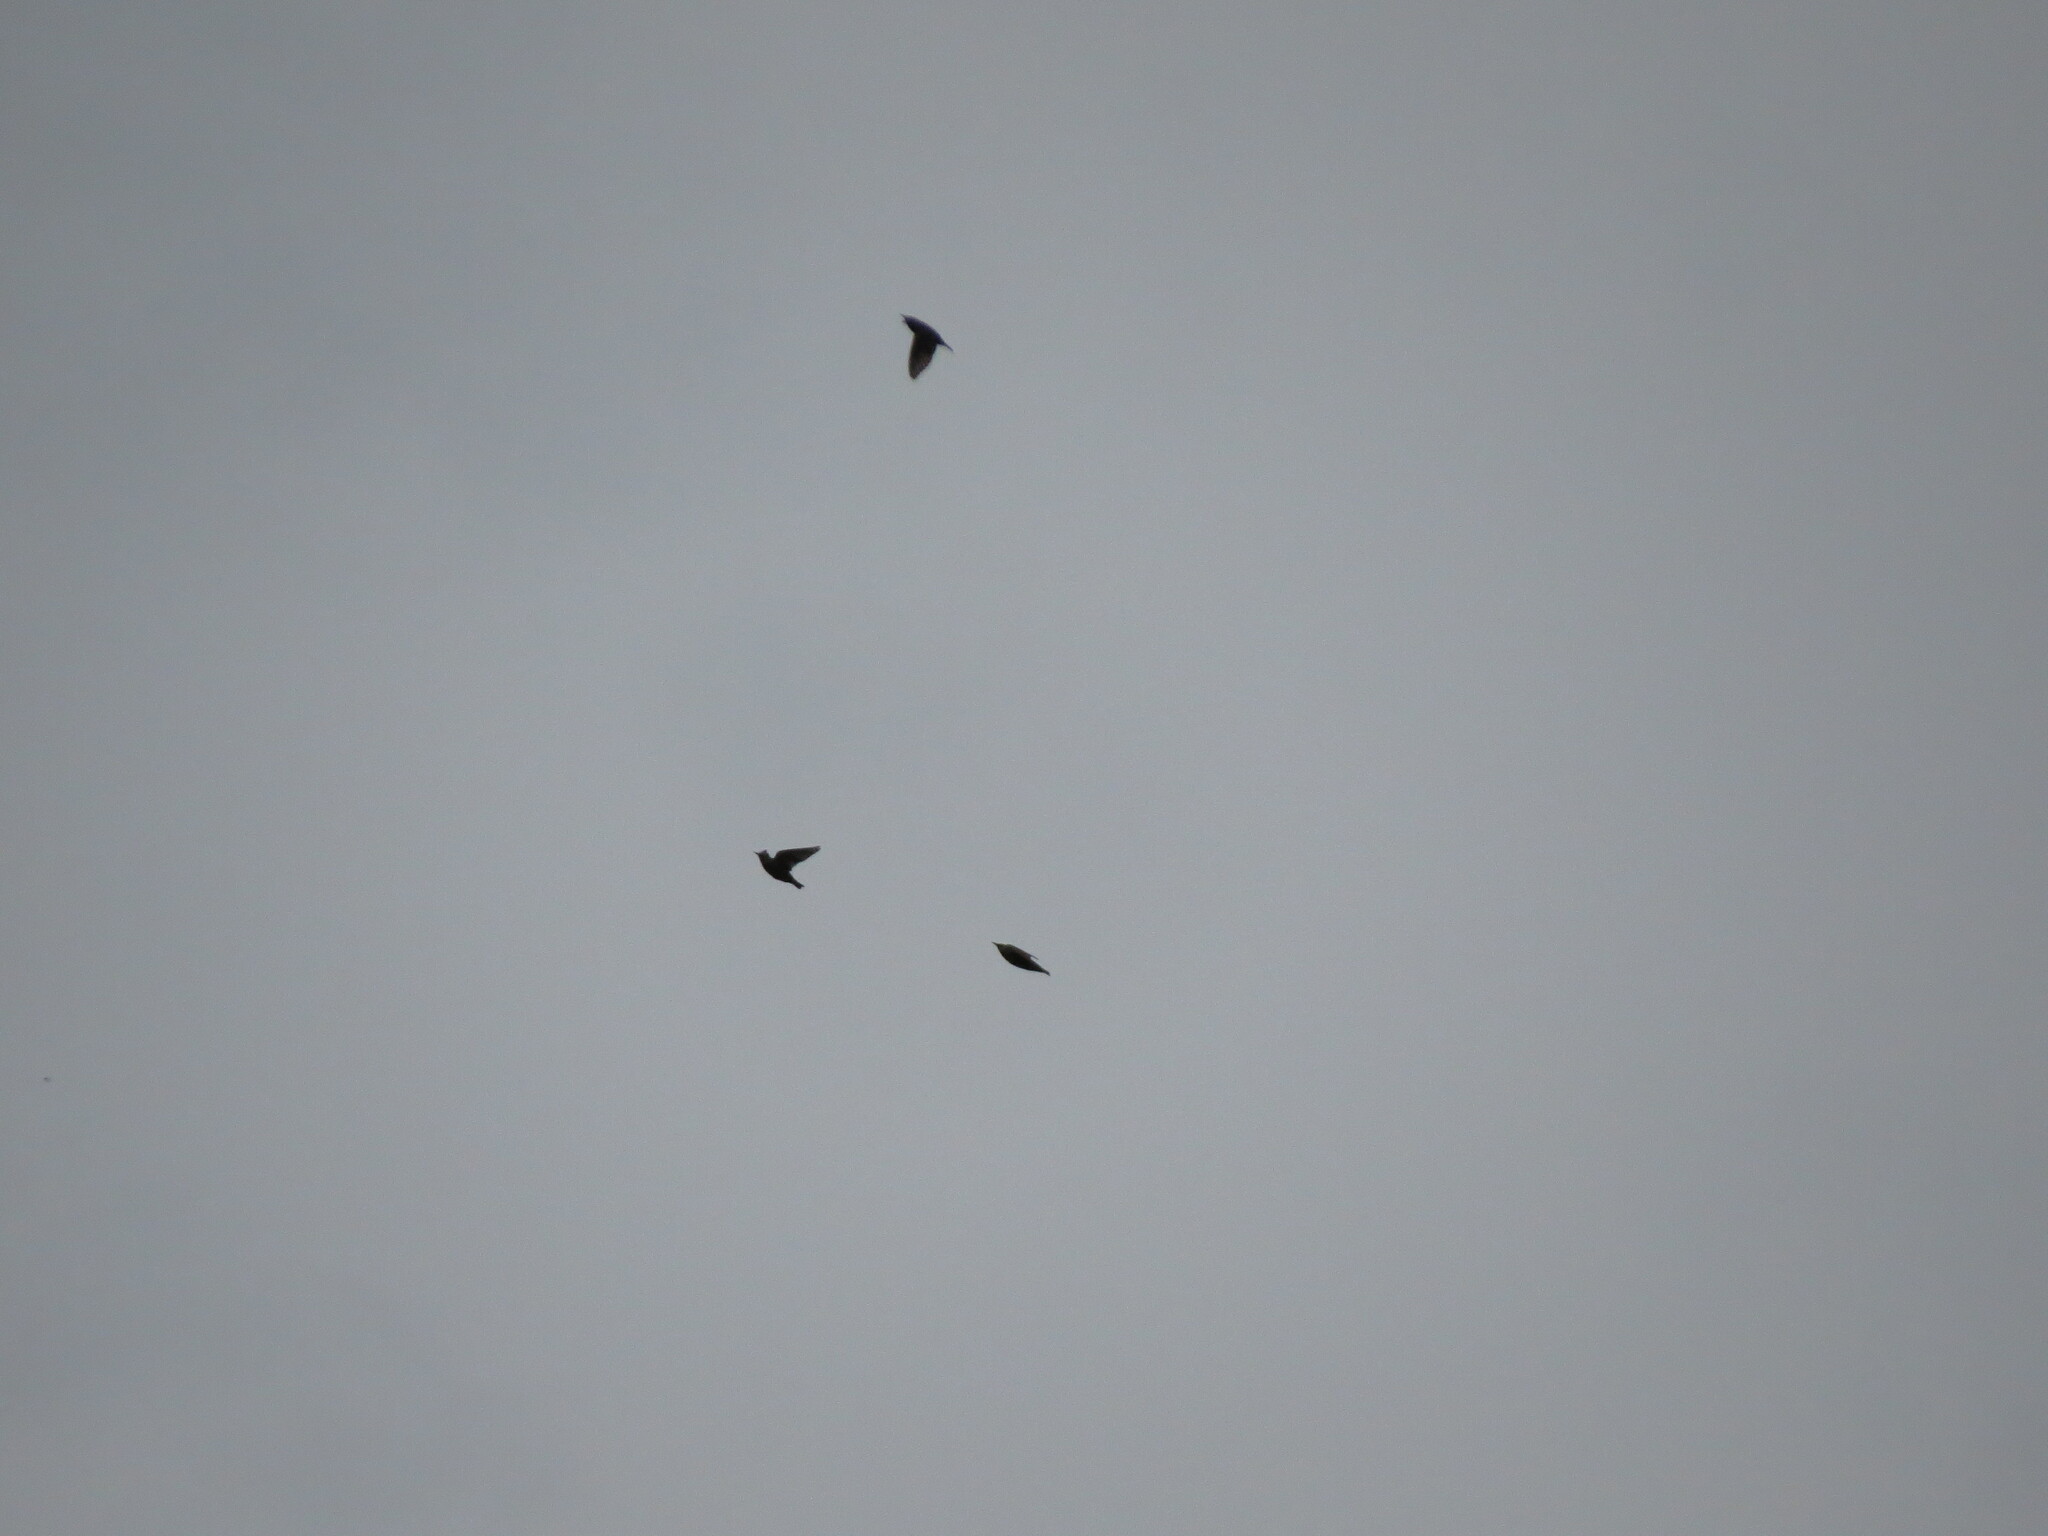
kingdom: Animalia
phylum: Chordata
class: Aves
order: Passeriformes
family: Sturnidae
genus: Sturnus
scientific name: Sturnus vulgaris
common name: Common starling
